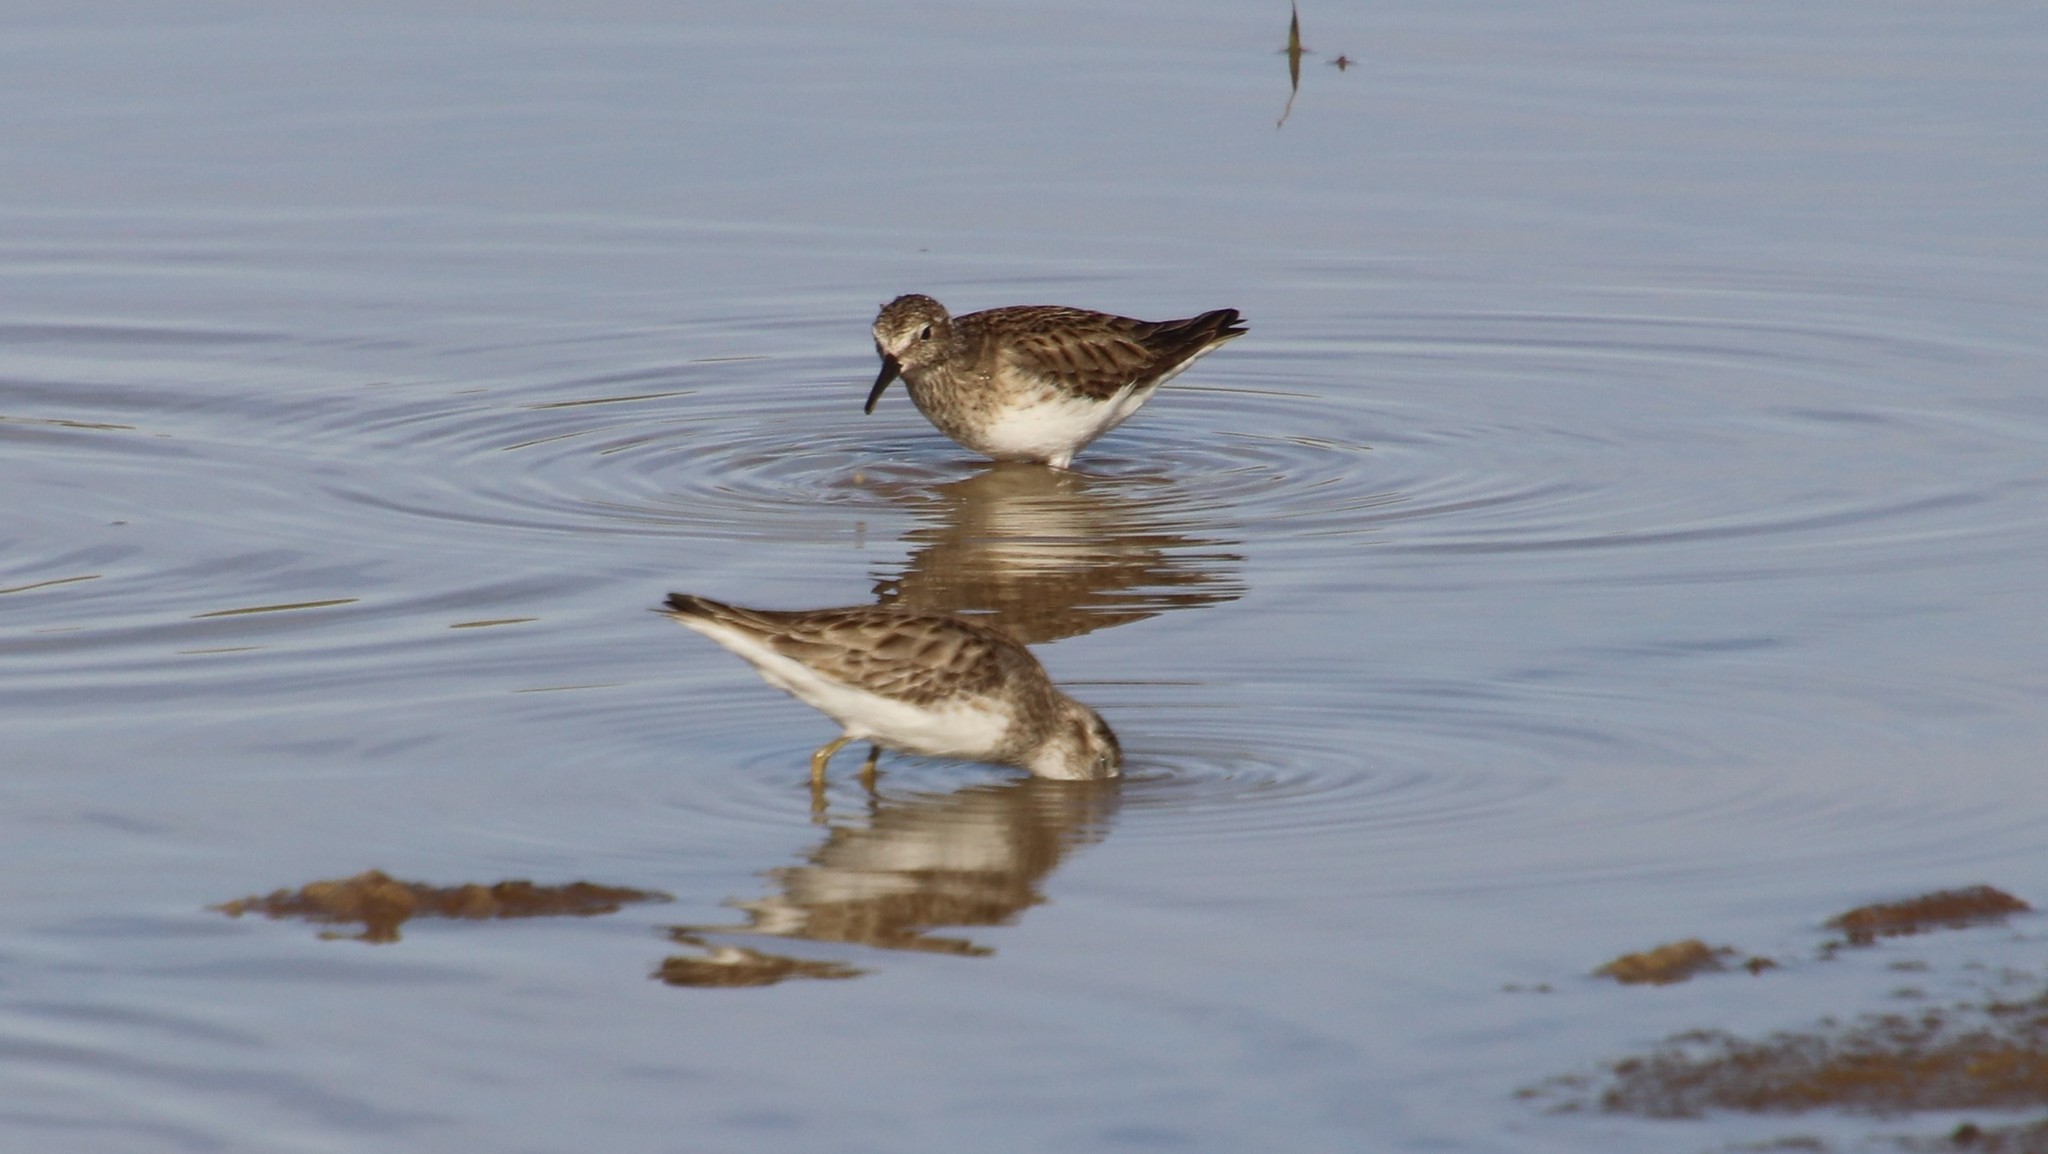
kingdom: Animalia
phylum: Chordata
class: Aves
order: Charadriiformes
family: Scolopacidae
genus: Calidris
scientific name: Calidris minutilla
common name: Least sandpiper
